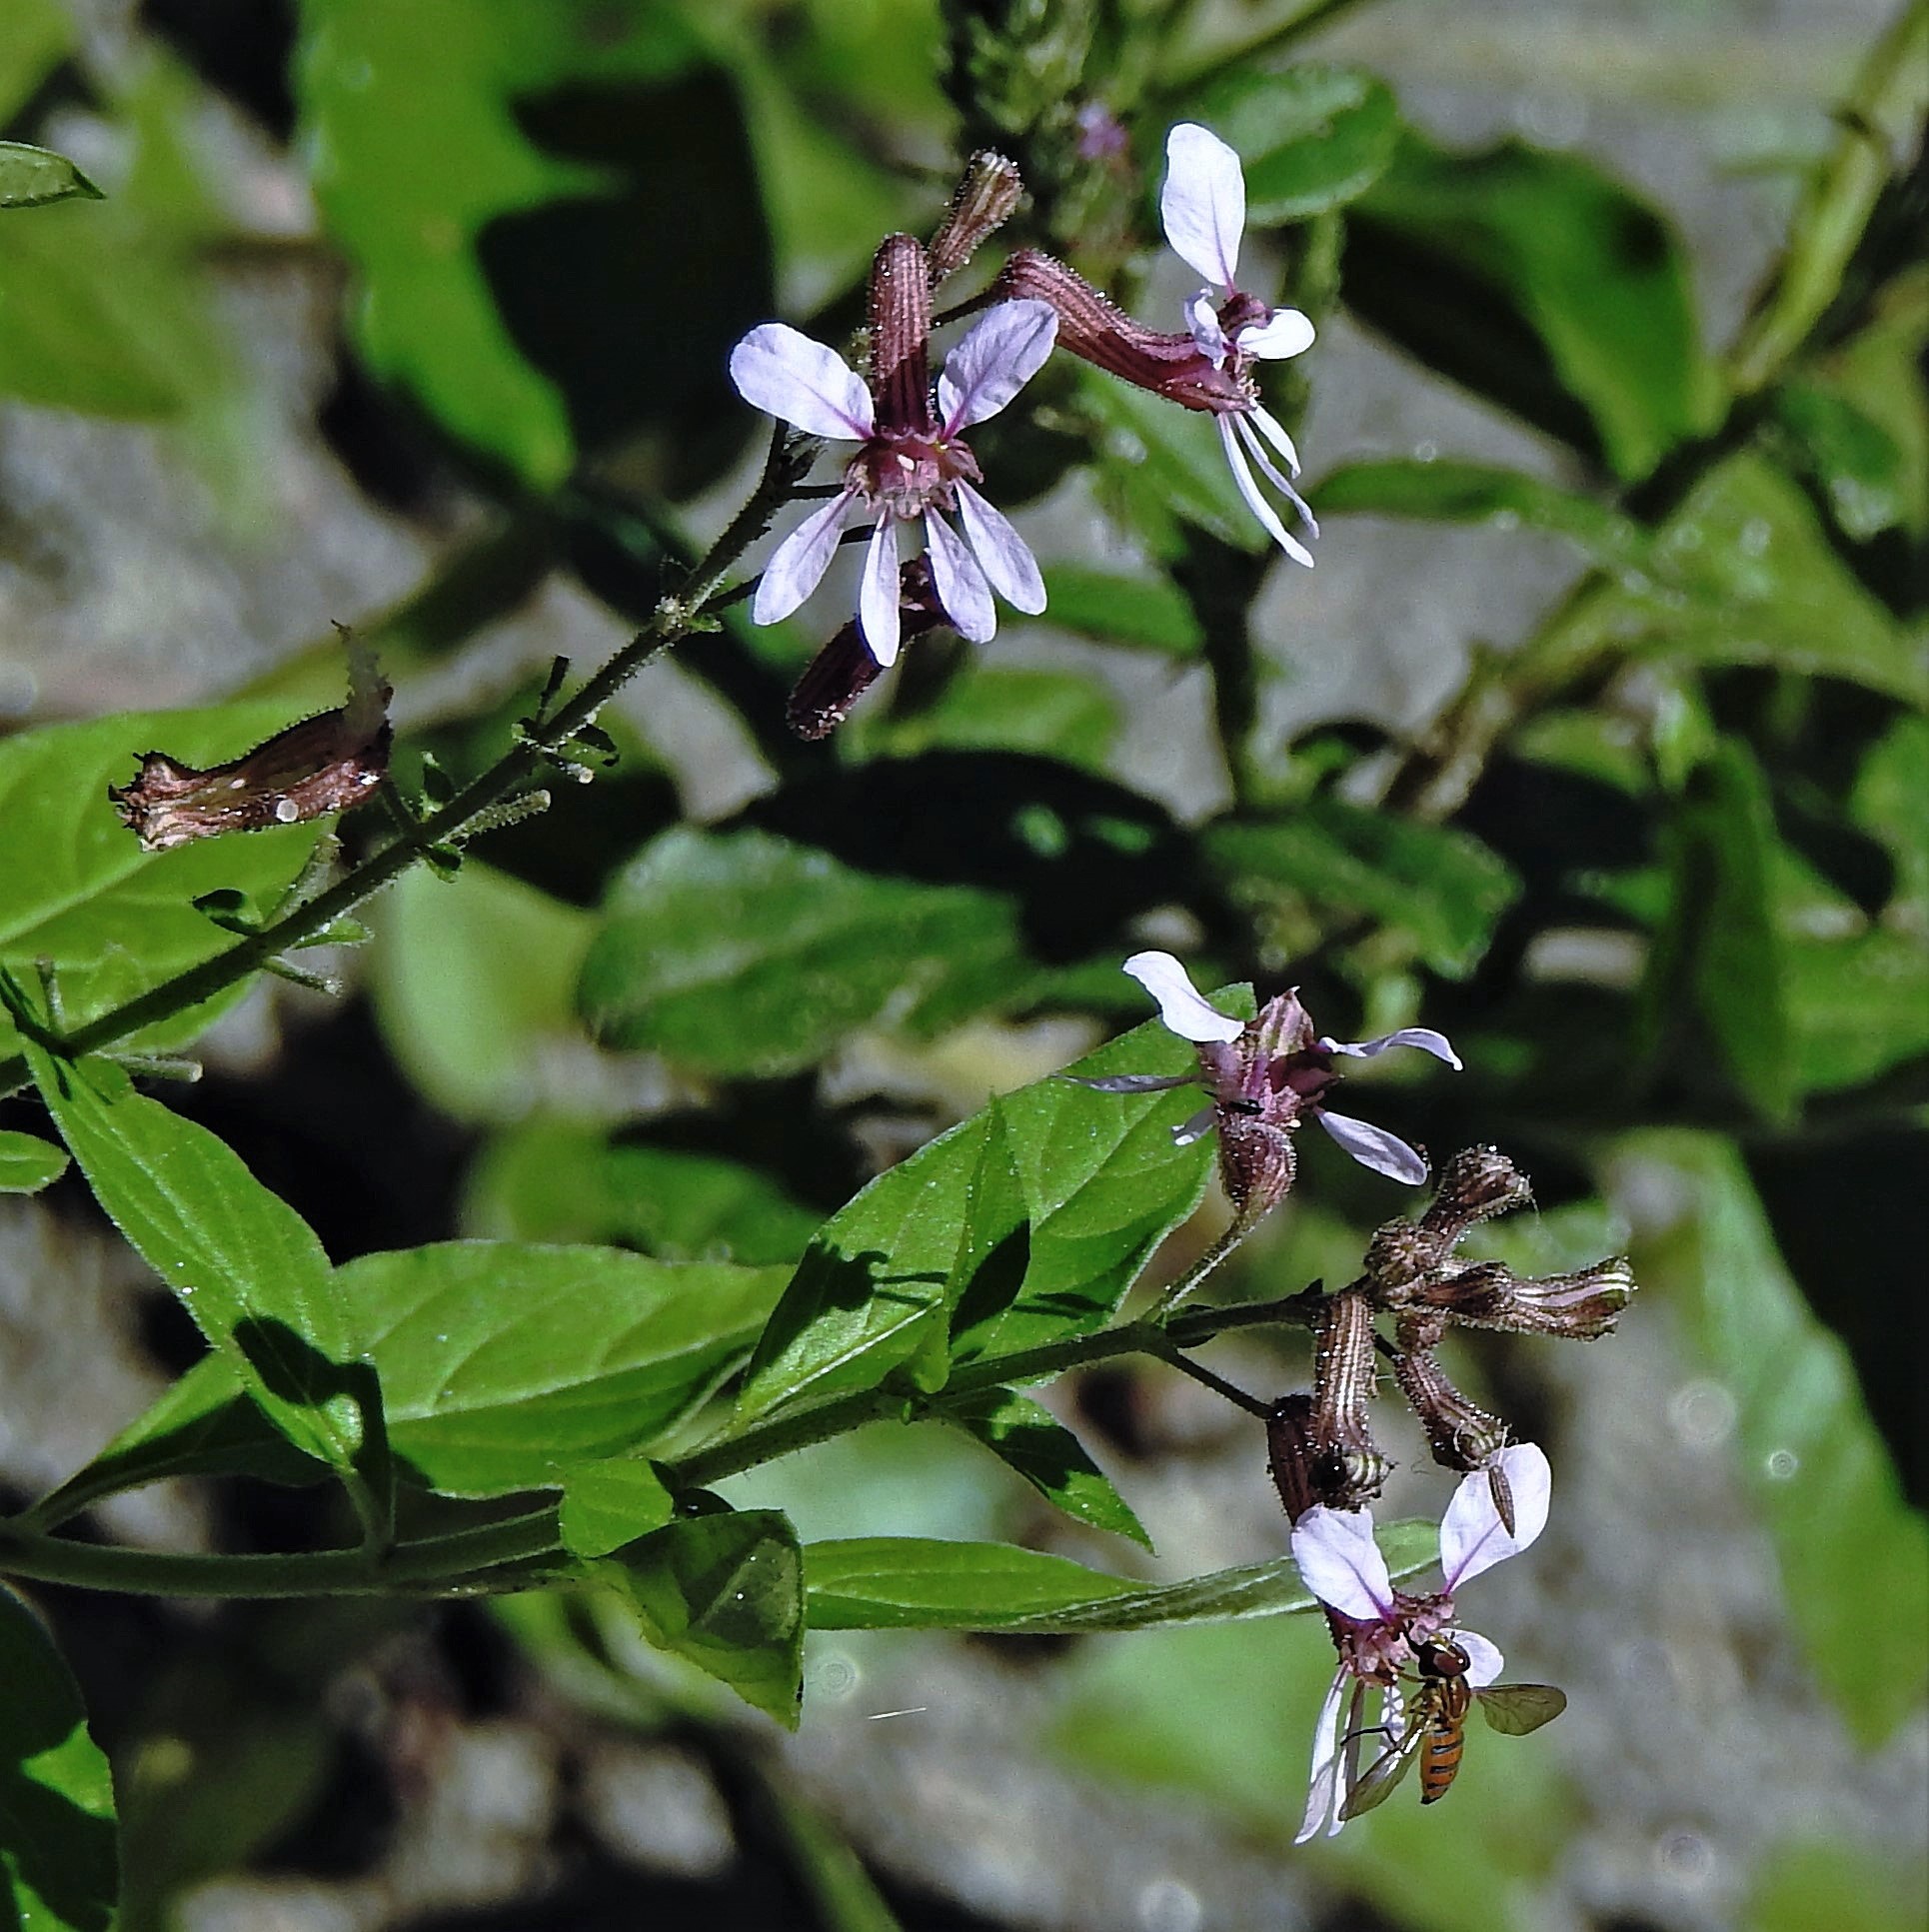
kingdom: Plantae
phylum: Tracheophyta
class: Magnoliopsida
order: Myrtales
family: Lythraceae
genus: Cuphea
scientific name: Cuphea racemosa
